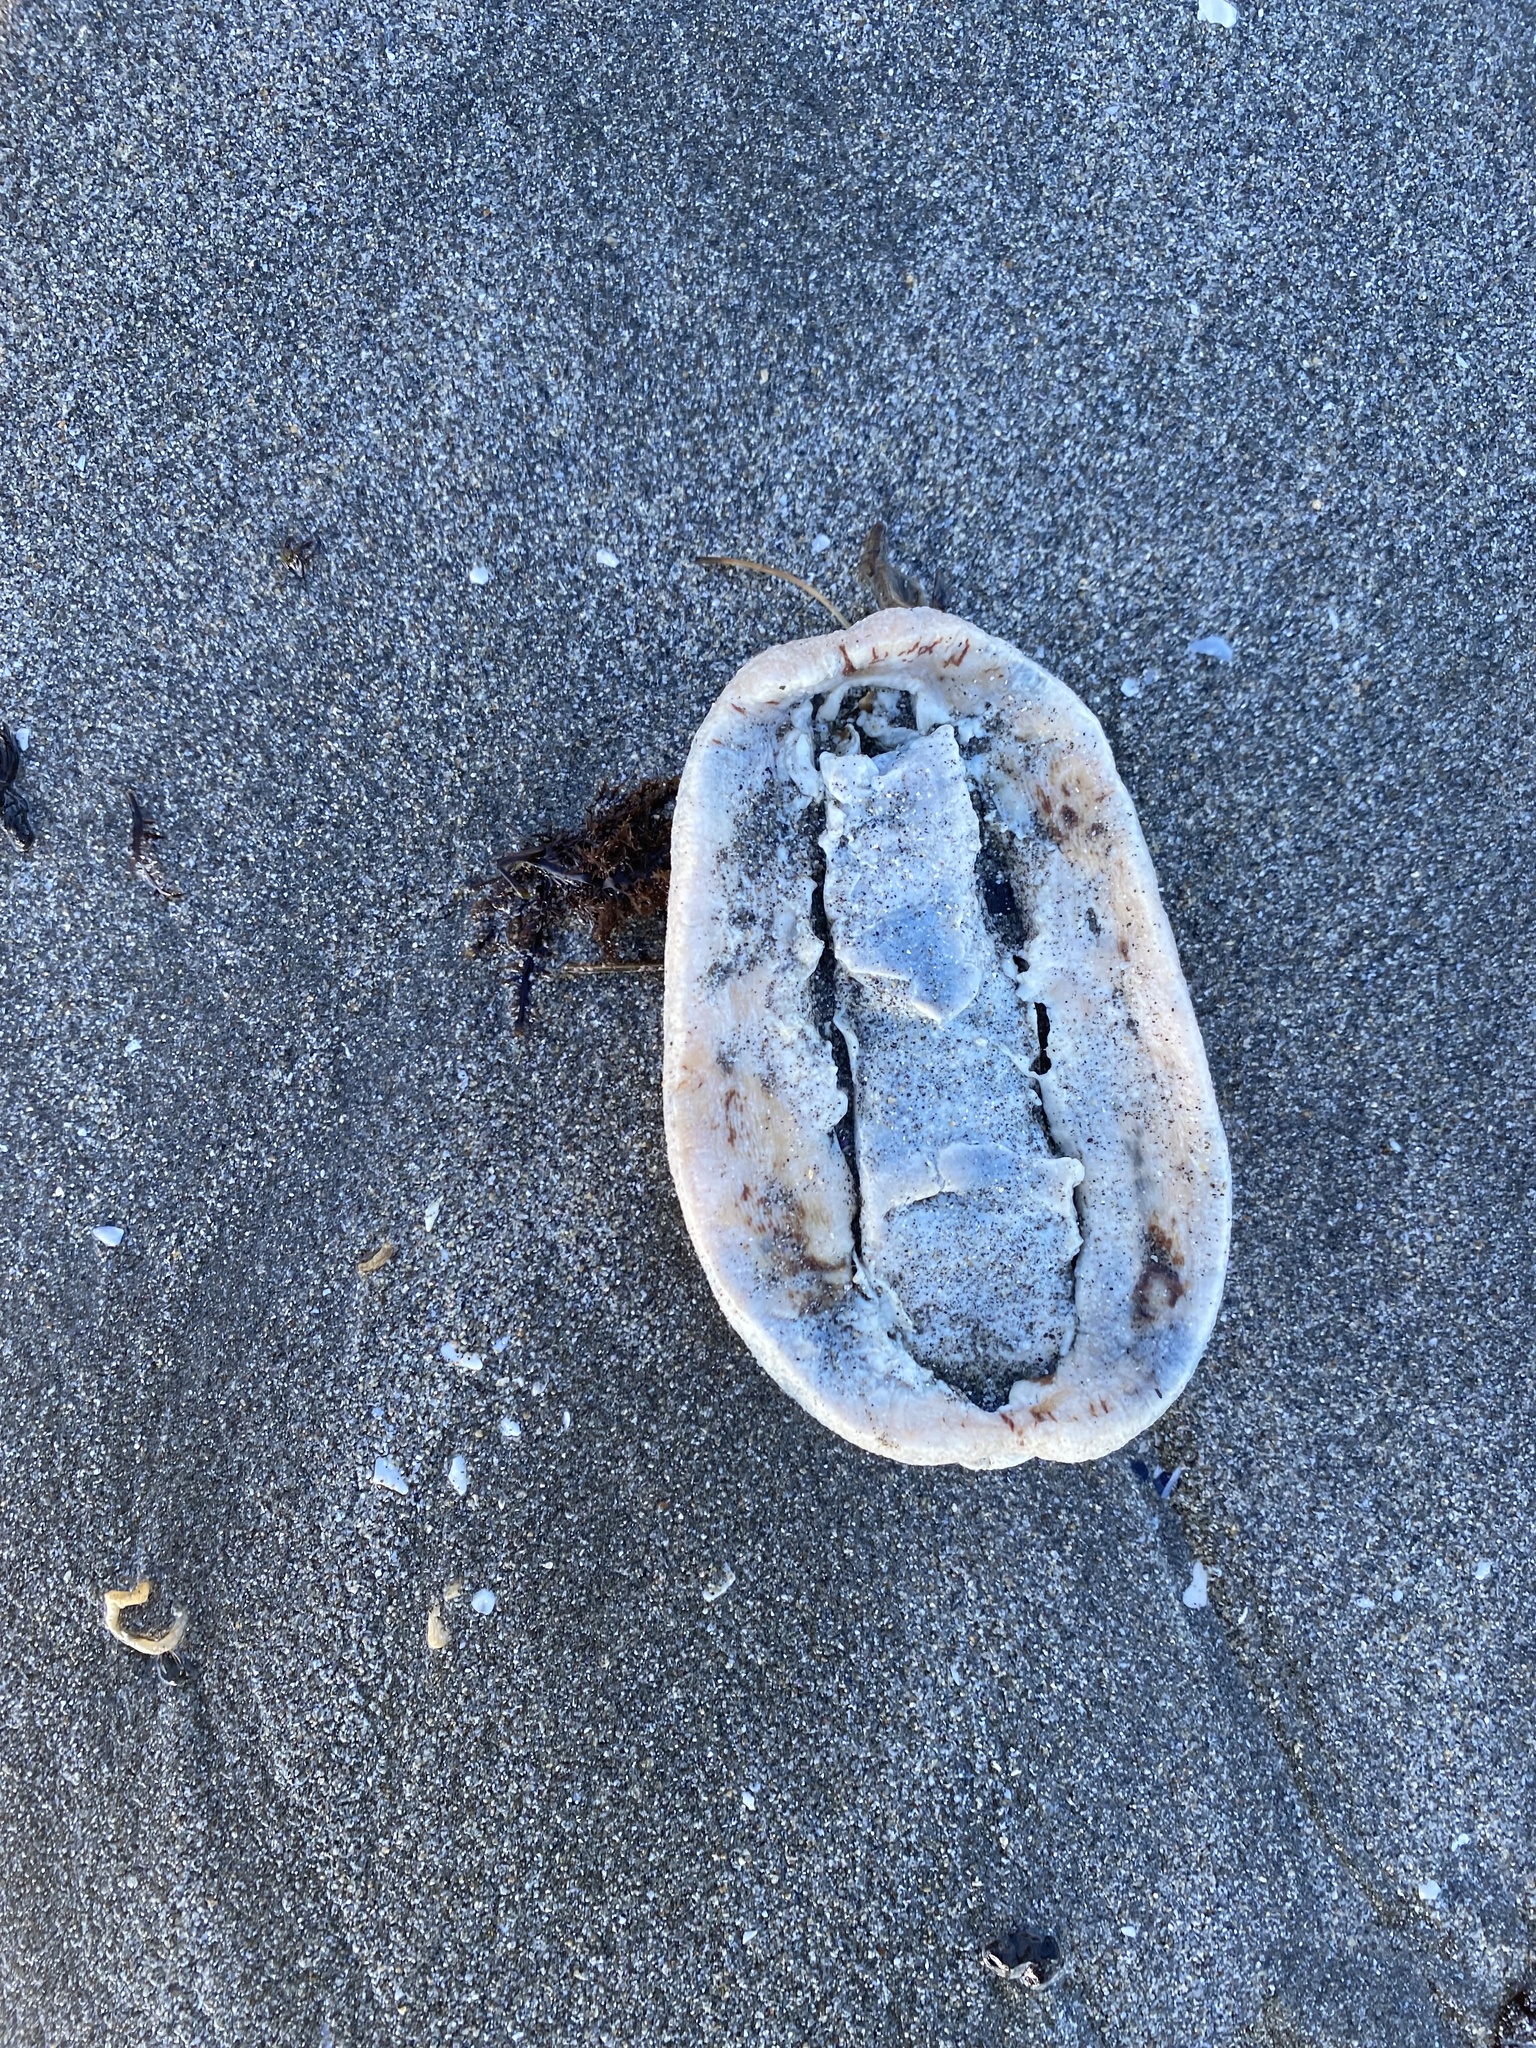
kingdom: Animalia
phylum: Mollusca
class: Polyplacophora
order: Chitonida
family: Acanthochitonidae
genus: Cryptochiton
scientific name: Cryptochiton stelleri
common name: Giant pacific chiton
